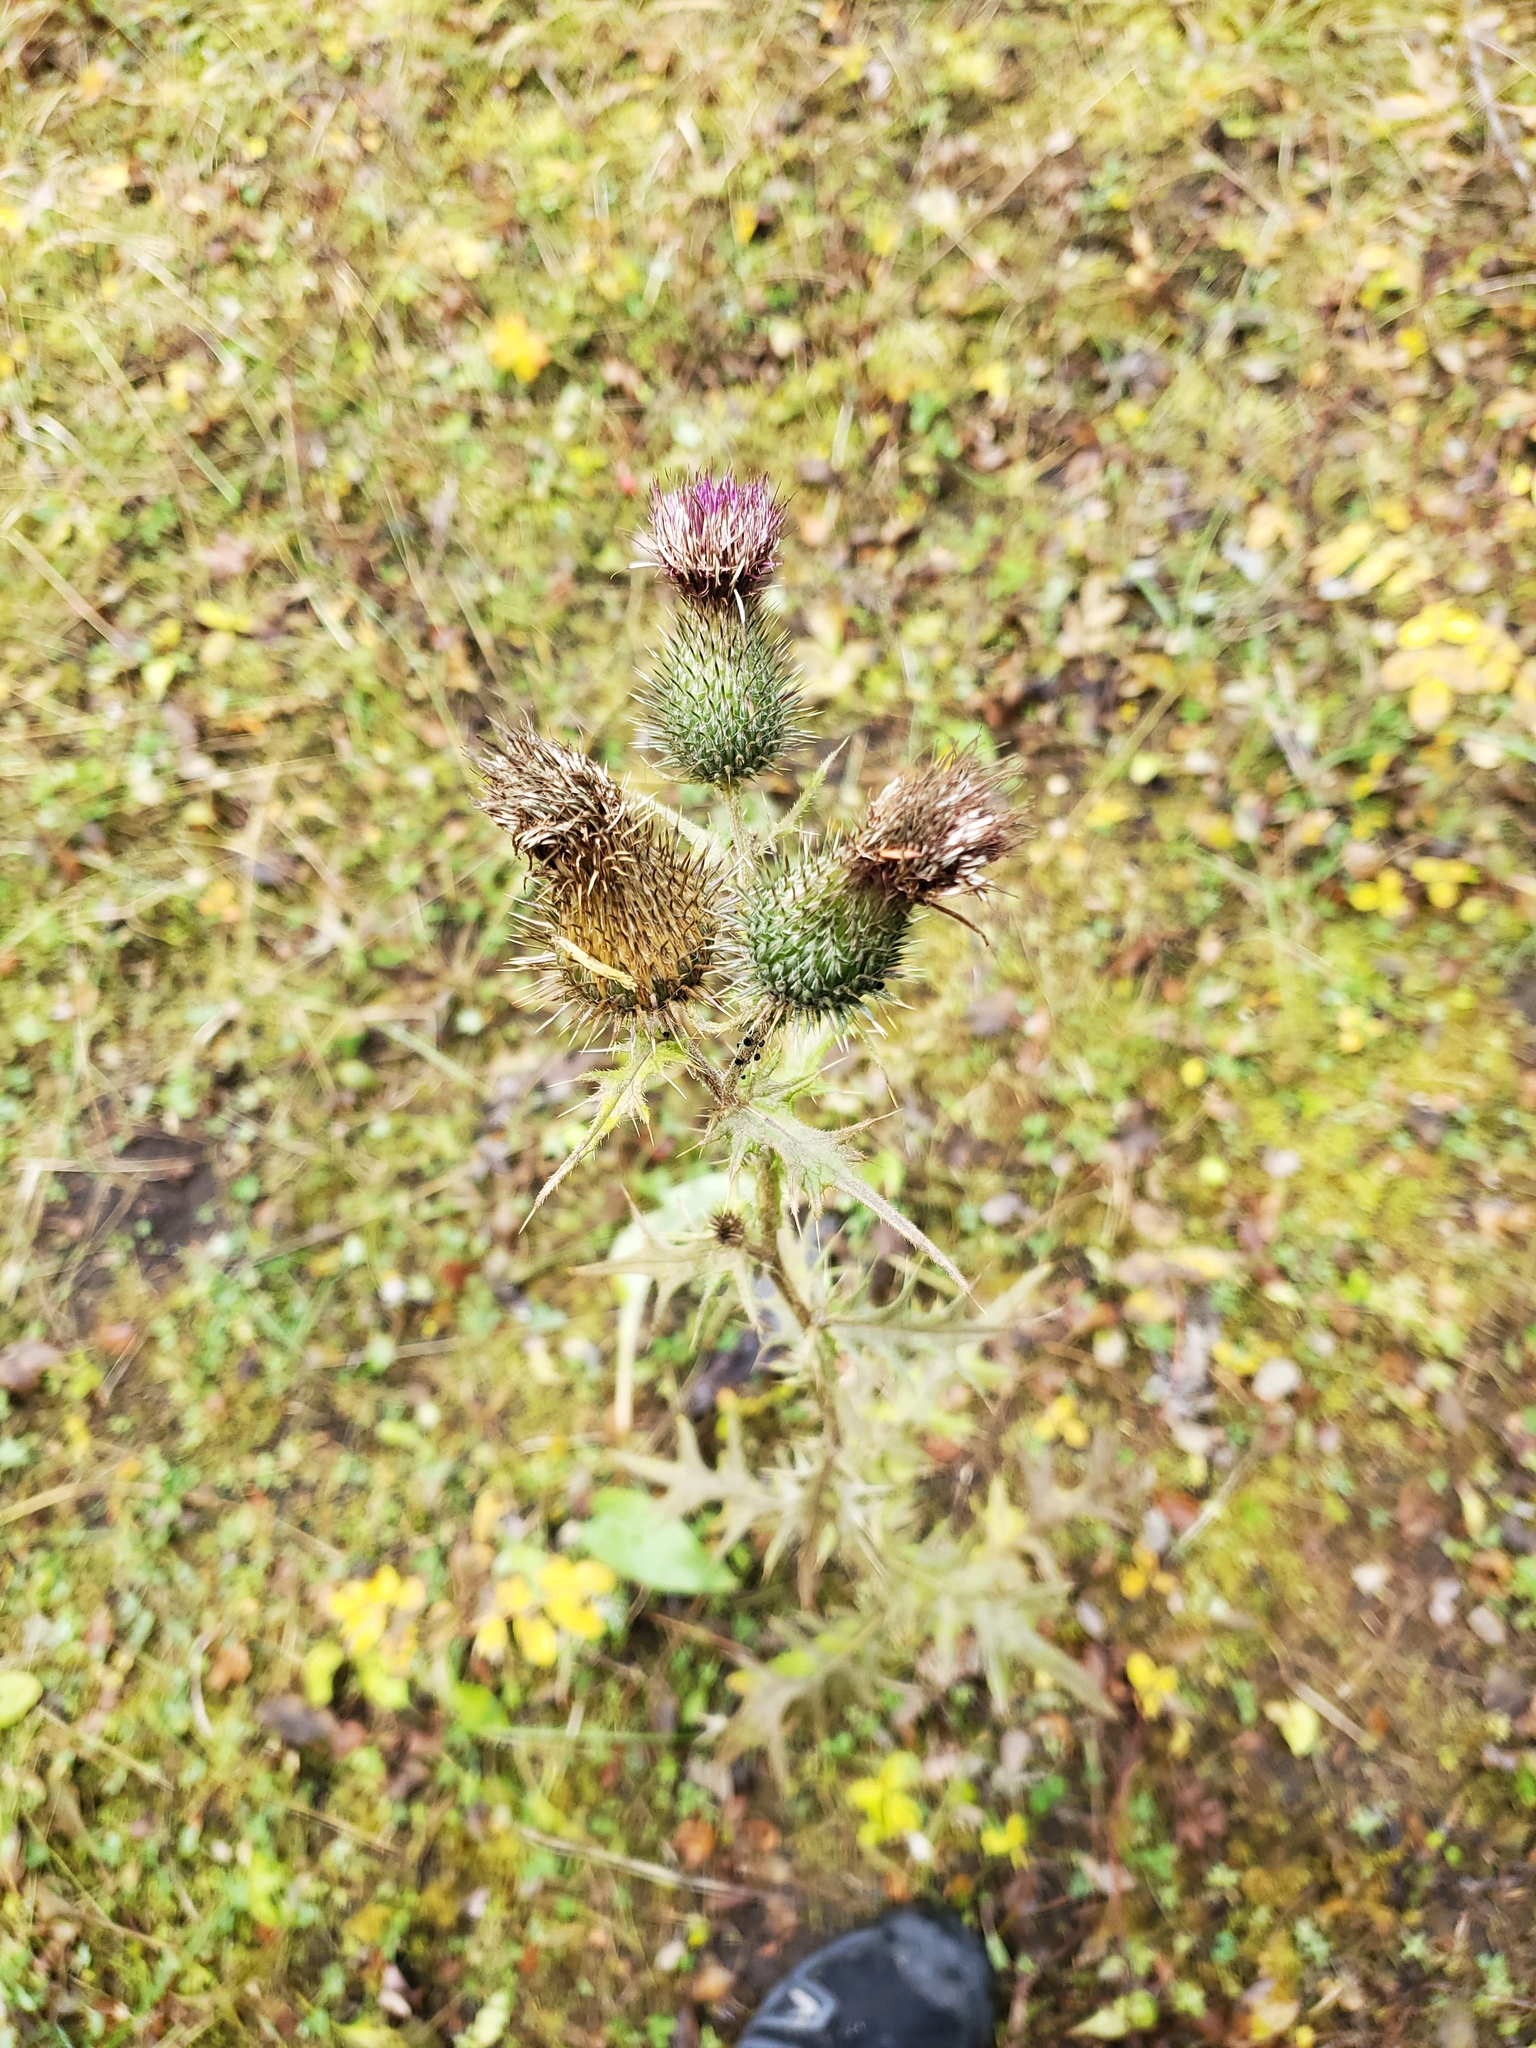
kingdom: Plantae
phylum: Tracheophyta
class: Magnoliopsida
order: Asterales
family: Asteraceae
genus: Cirsium
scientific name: Cirsium vulgare
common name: Bull thistle
